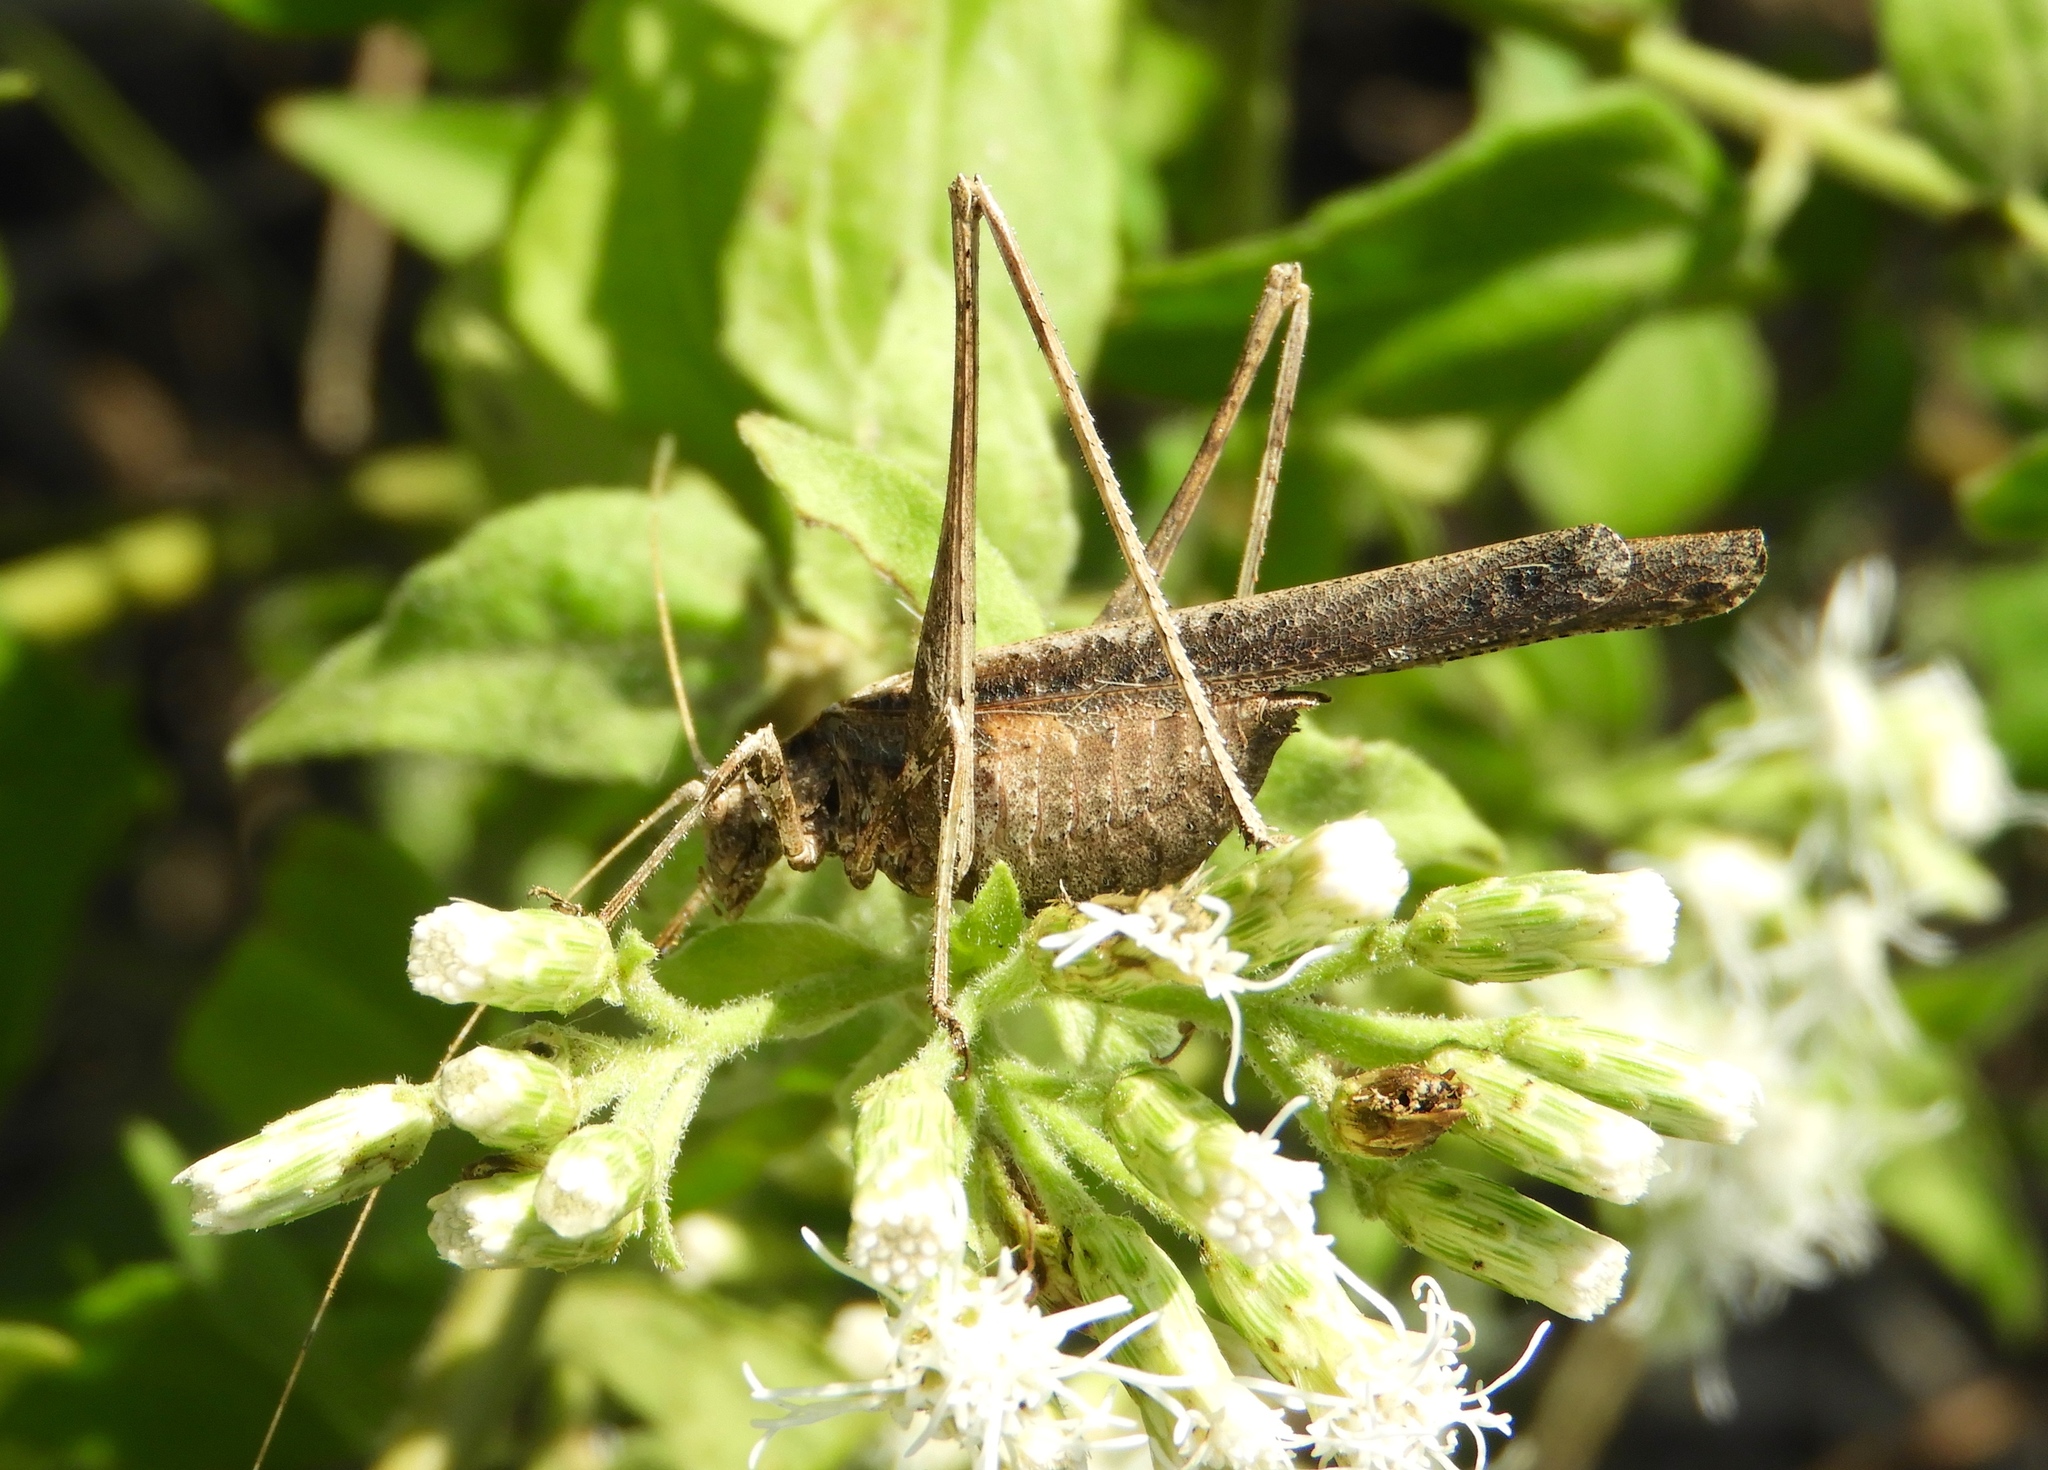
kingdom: Animalia
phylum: Arthropoda
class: Insecta
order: Orthoptera
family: Tettigoniidae
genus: Insara
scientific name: Insara
